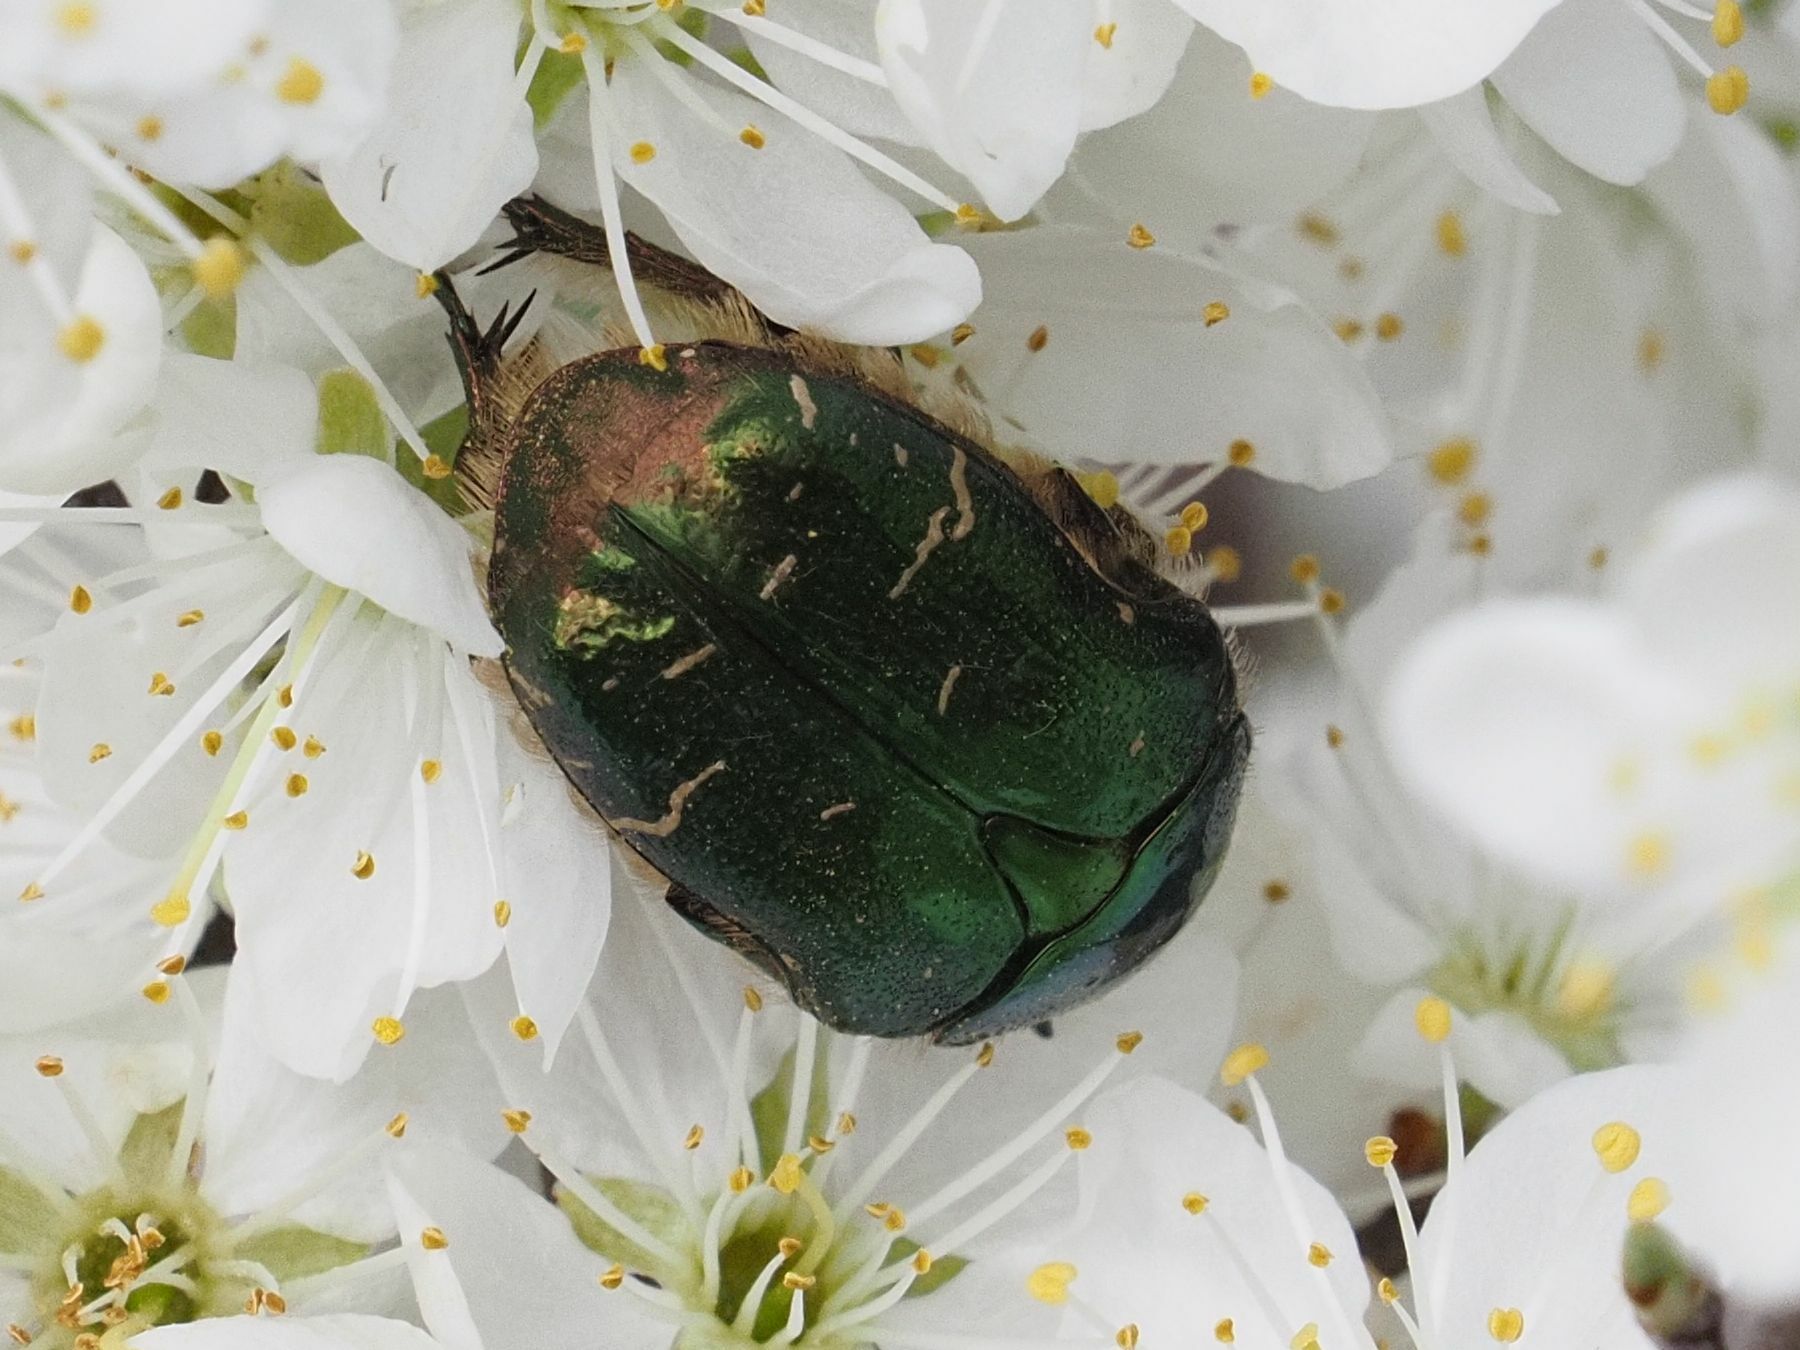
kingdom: Animalia
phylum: Arthropoda
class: Insecta
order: Coleoptera
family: Scarabaeidae
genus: Cetonia
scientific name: Cetonia aurata
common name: Rose chafer
